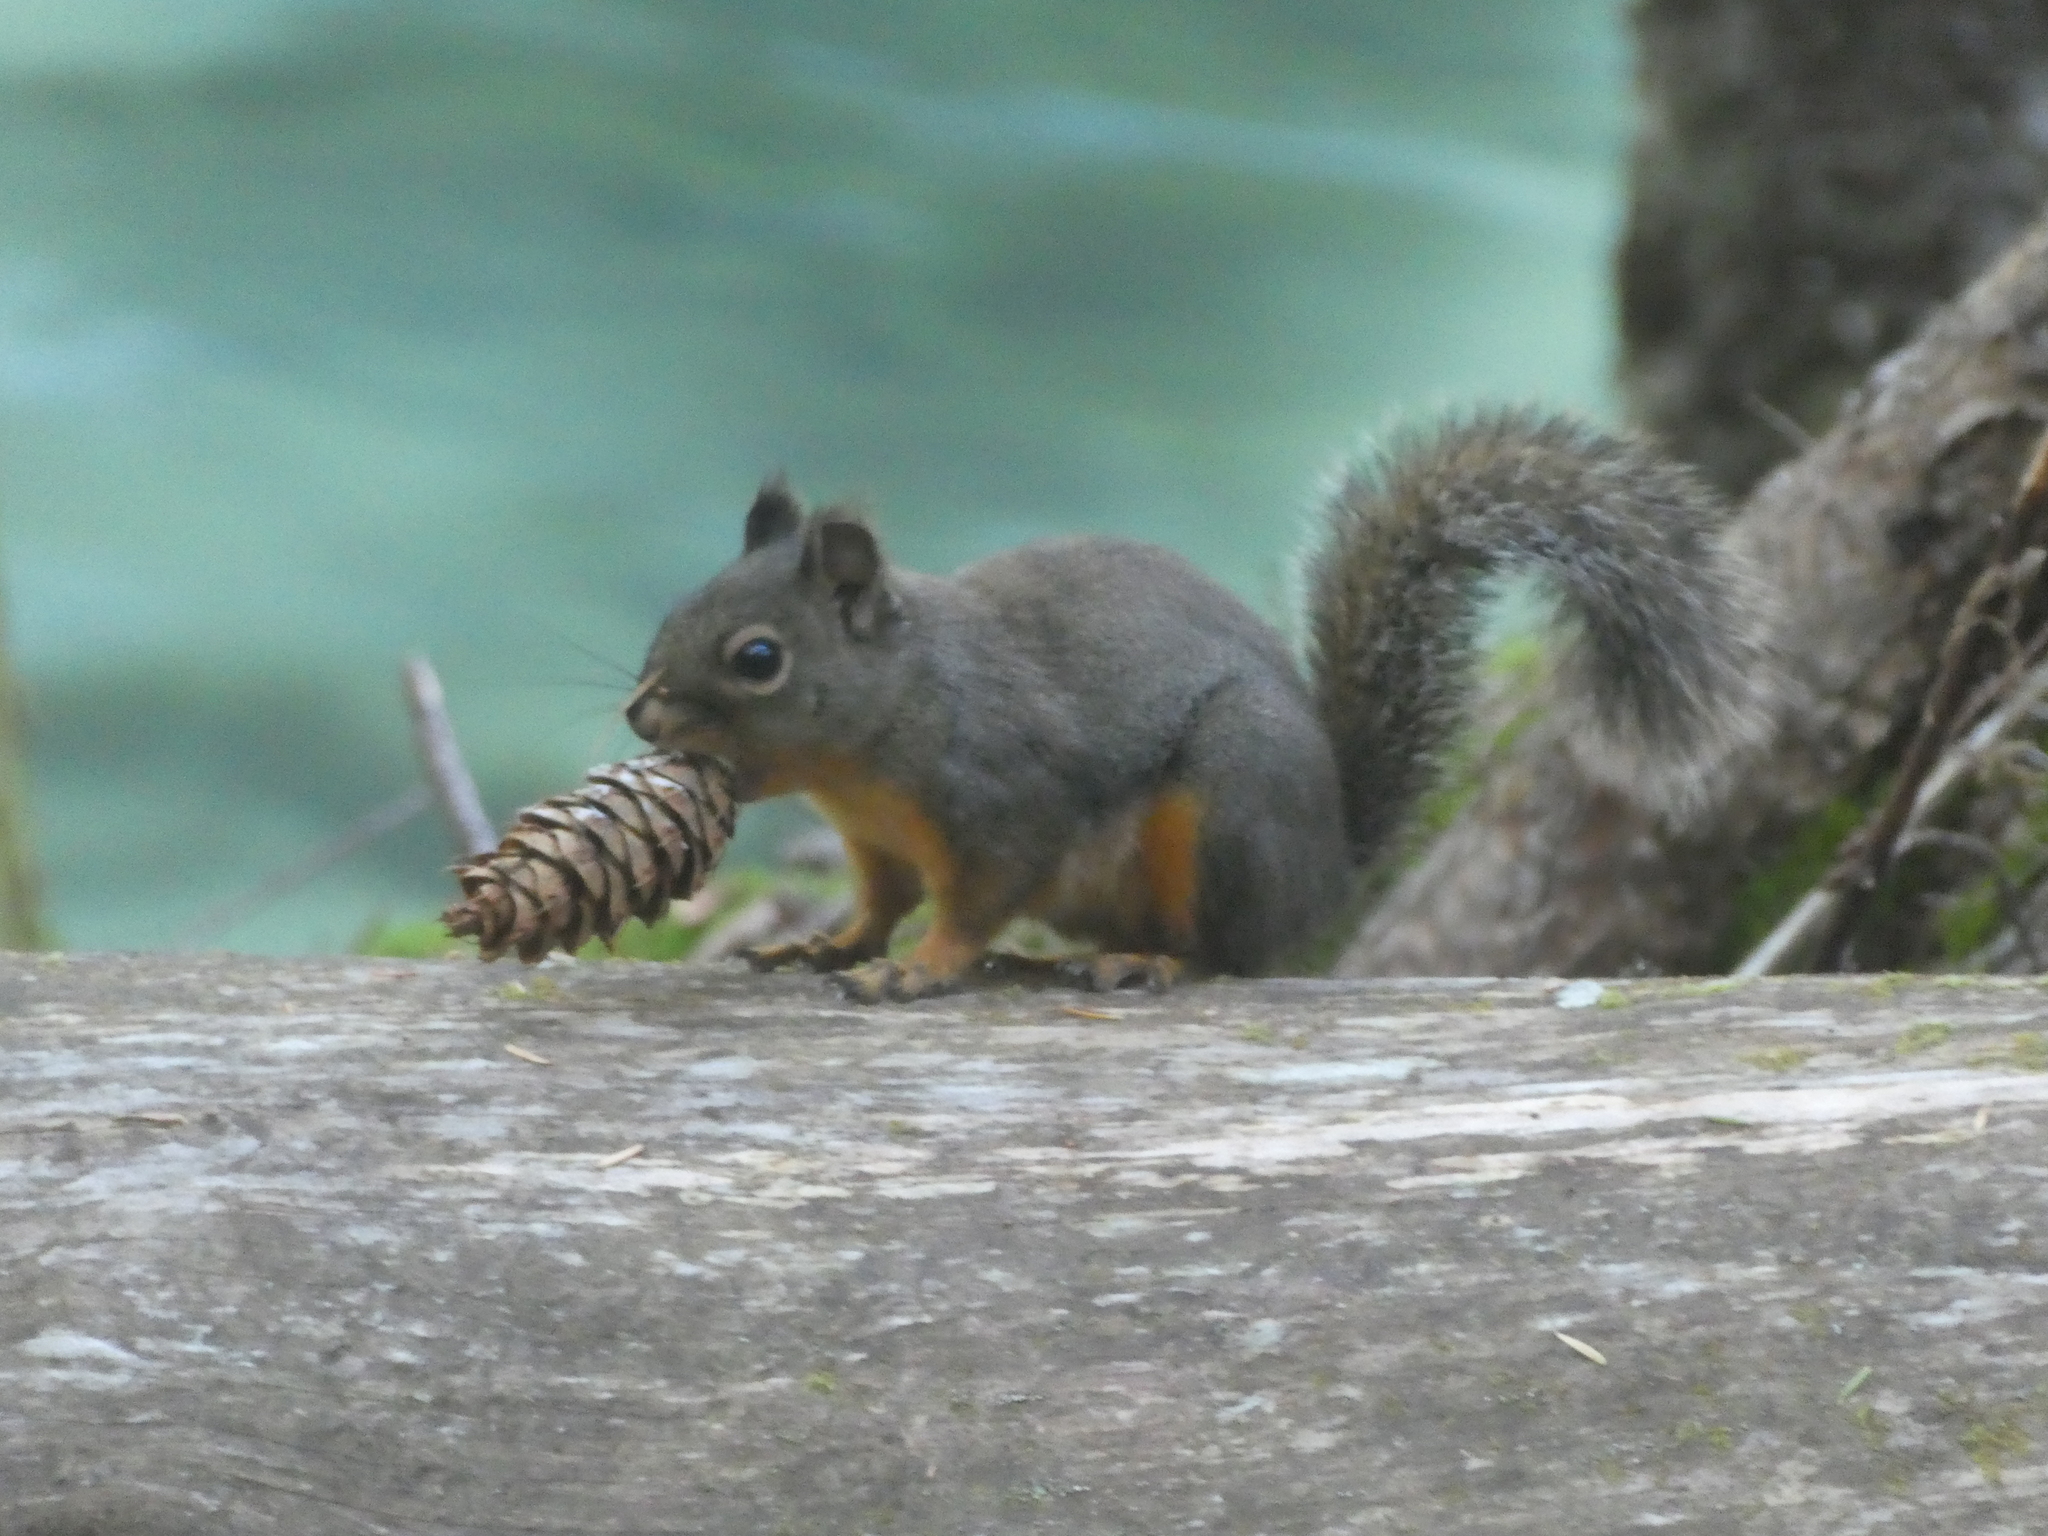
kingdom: Animalia
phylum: Chordata
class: Mammalia
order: Rodentia
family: Sciuridae
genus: Tamiasciurus
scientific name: Tamiasciurus douglasii
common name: Douglas's squirrel
